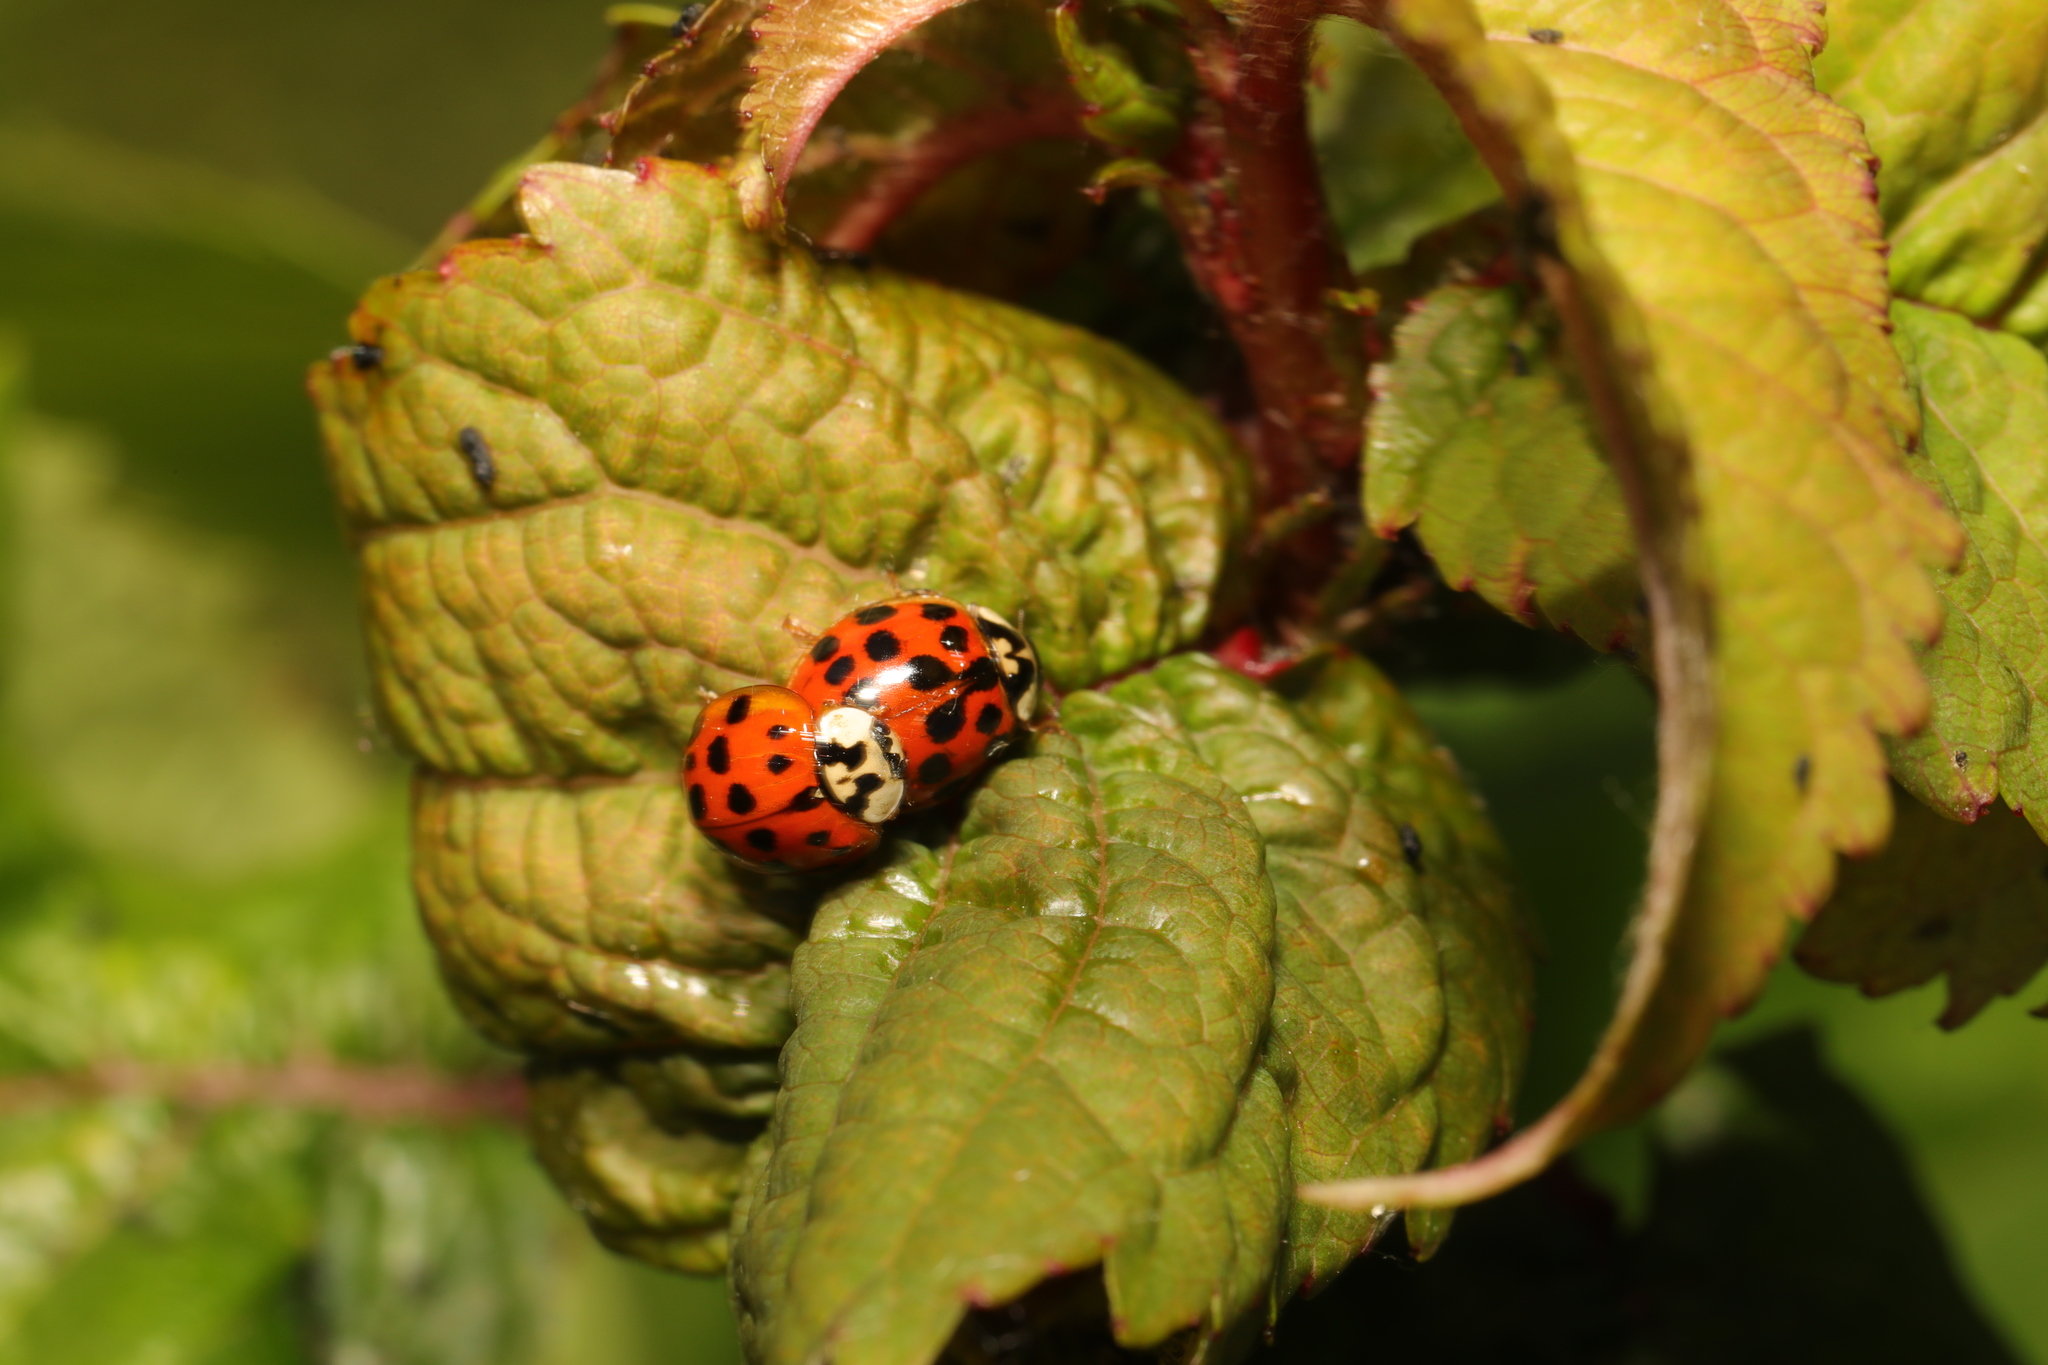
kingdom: Animalia
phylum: Arthropoda
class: Insecta
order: Coleoptera
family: Coccinellidae
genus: Harmonia
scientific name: Harmonia axyridis
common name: Harlequin ladybird
